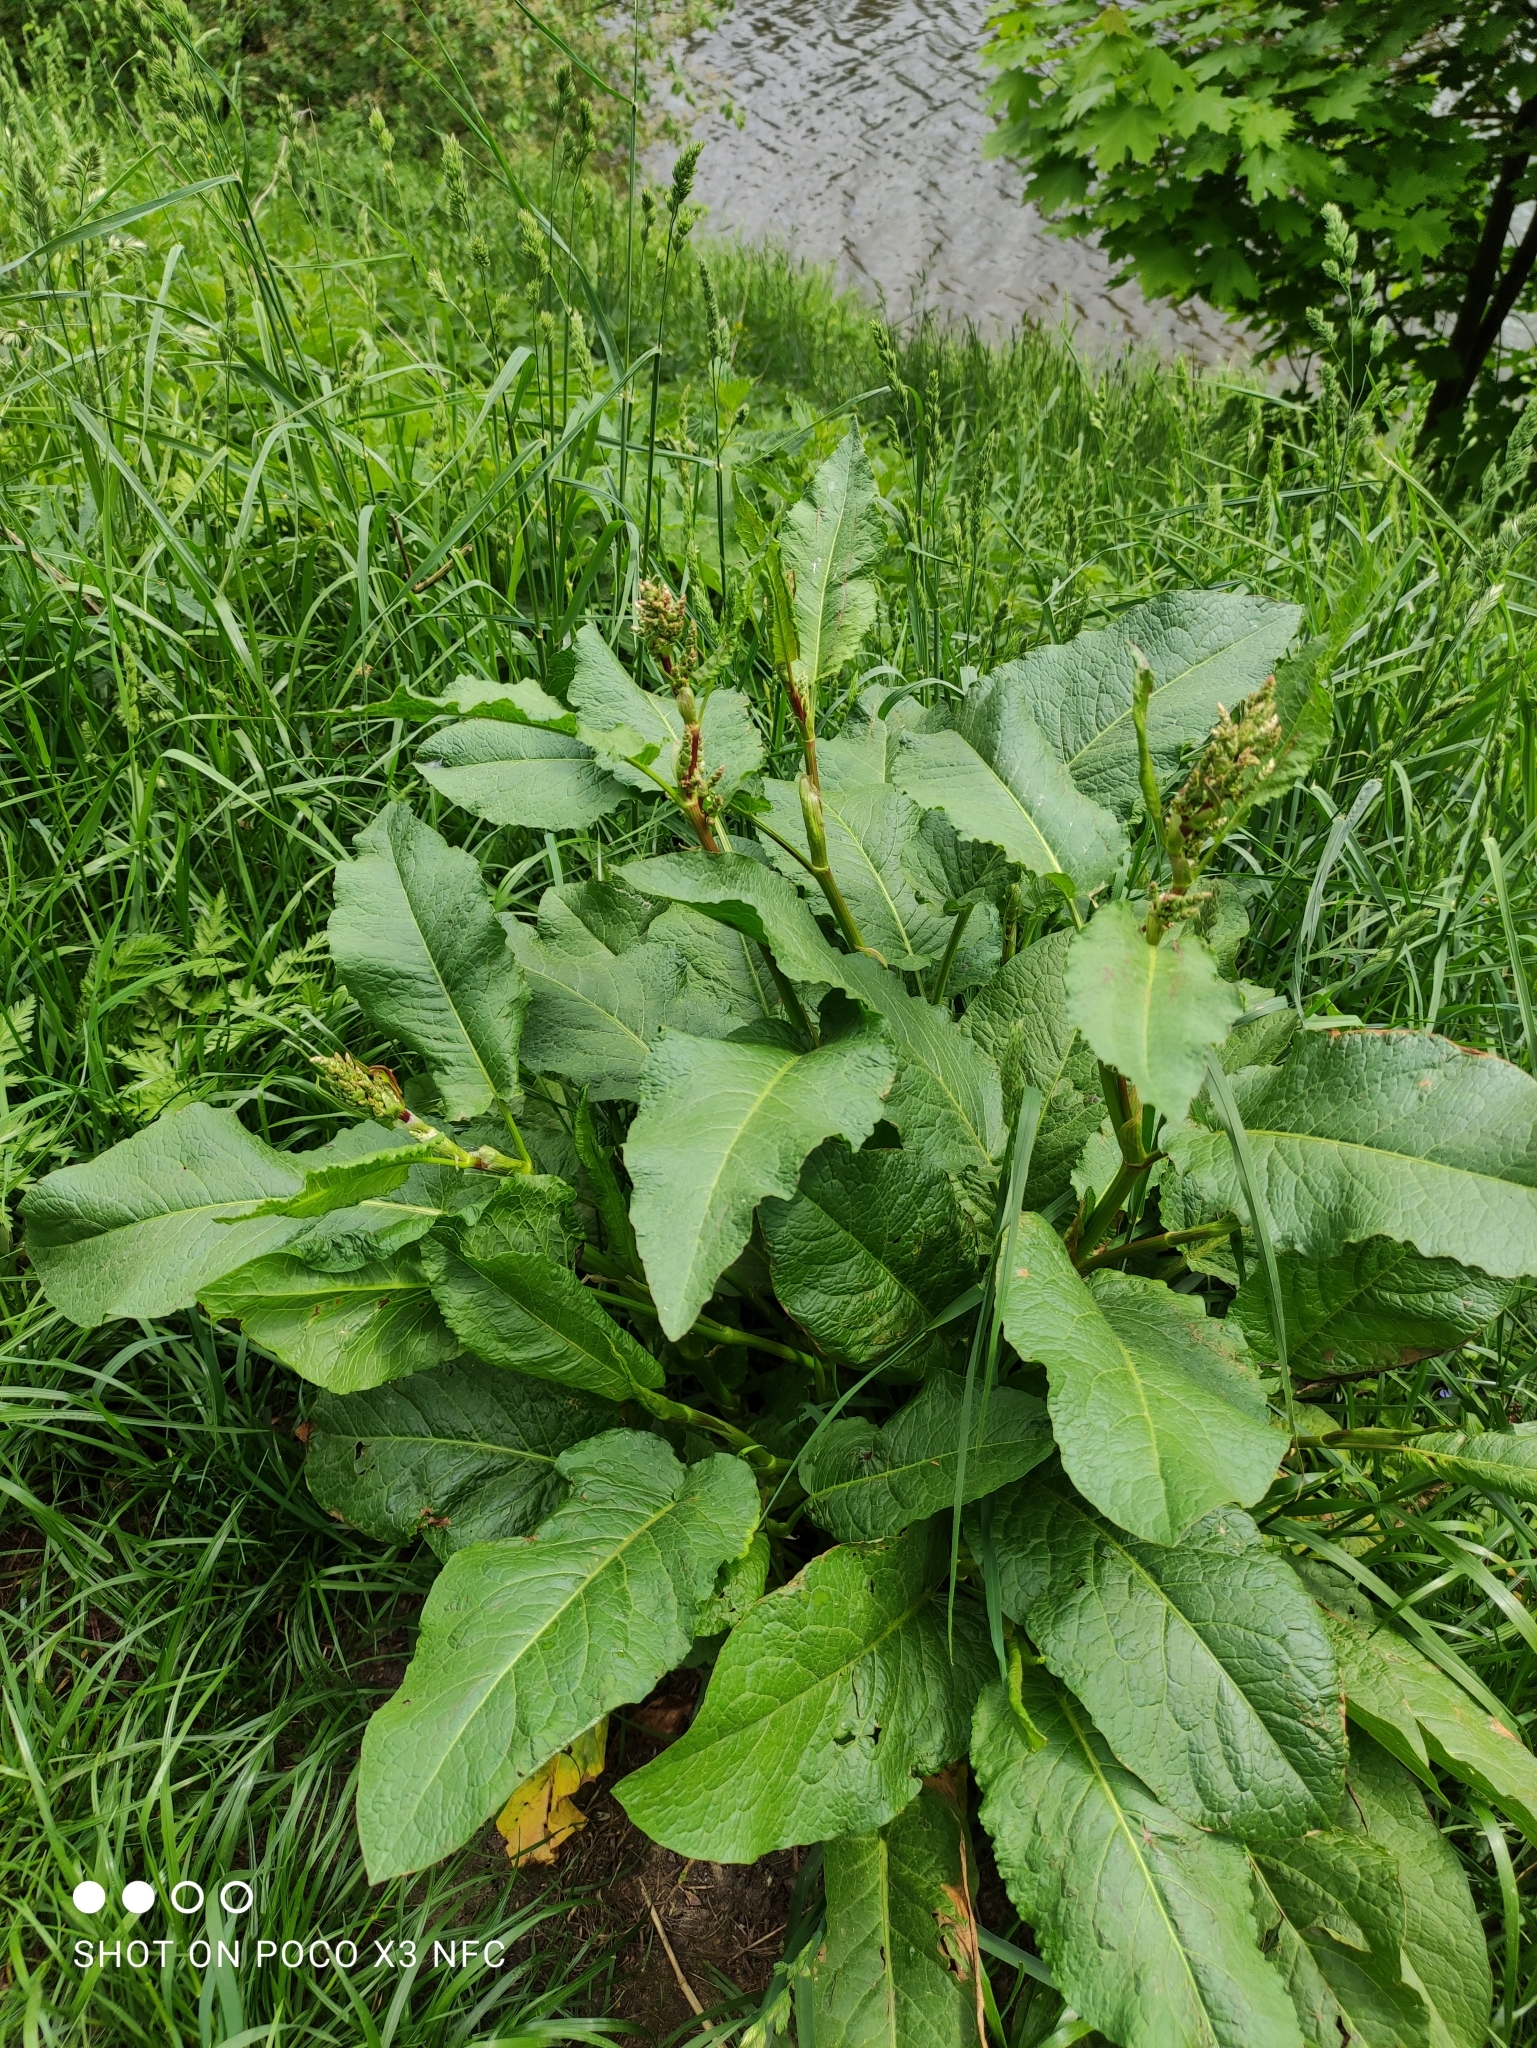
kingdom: Plantae
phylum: Tracheophyta
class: Magnoliopsida
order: Caryophyllales
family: Polygonaceae
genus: Rumex
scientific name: Rumex obtusifolius
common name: Bitter dock
